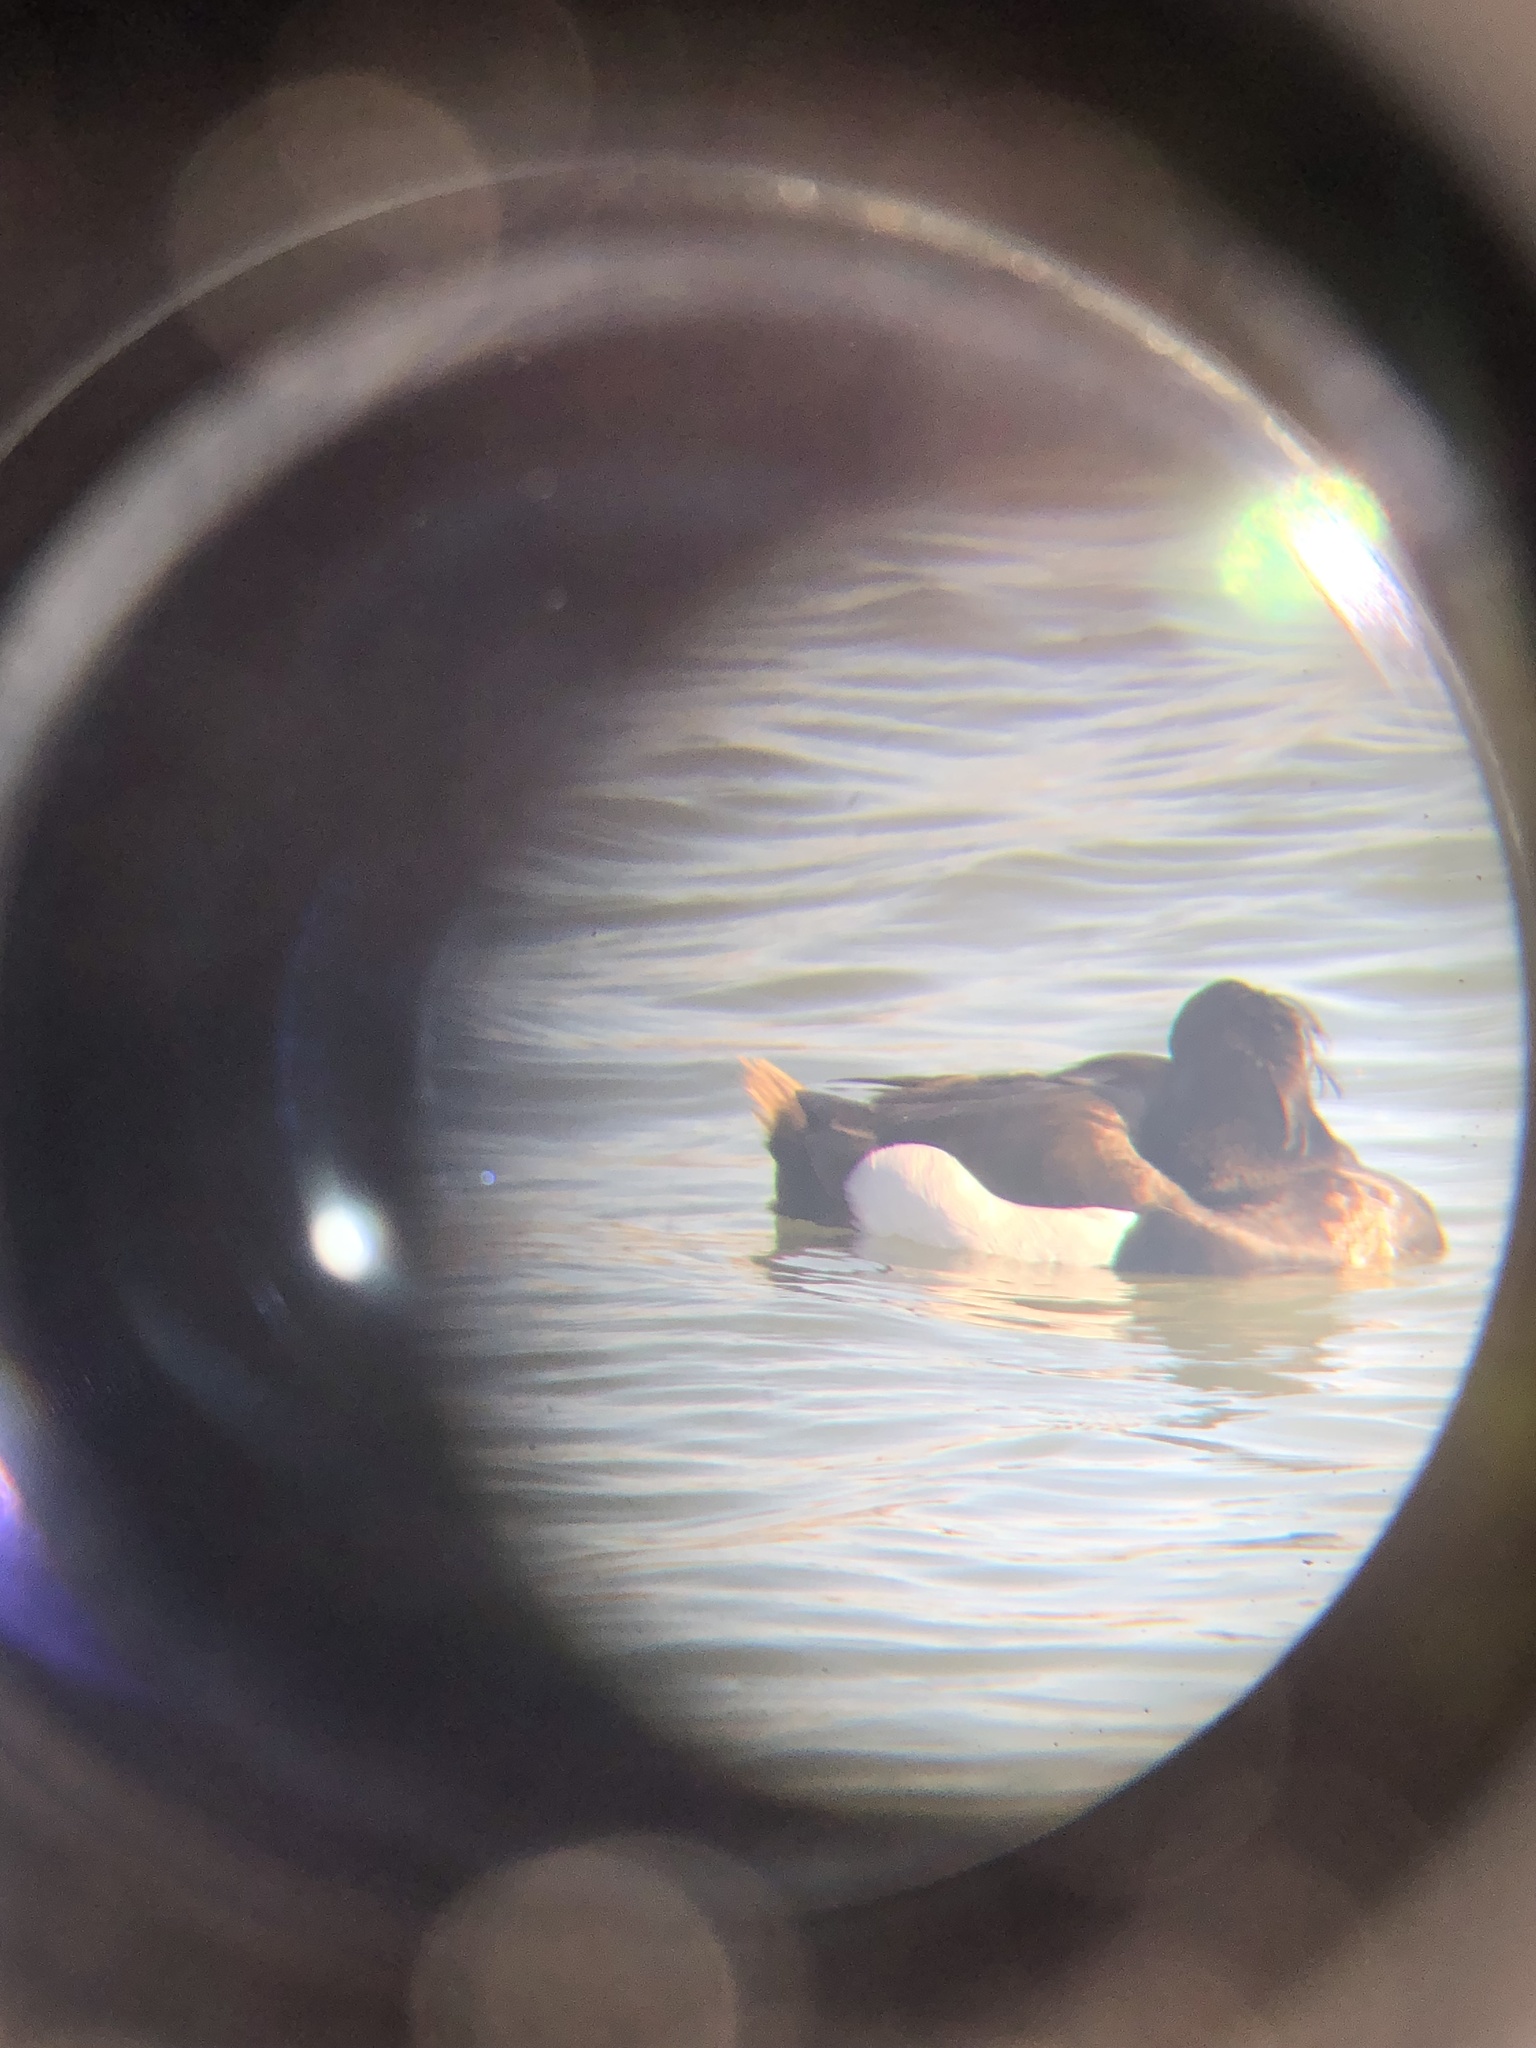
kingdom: Animalia
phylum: Chordata
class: Aves
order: Anseriformes
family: Anatidae
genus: Aythya
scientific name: Aythya fuligula
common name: Tufted duck
